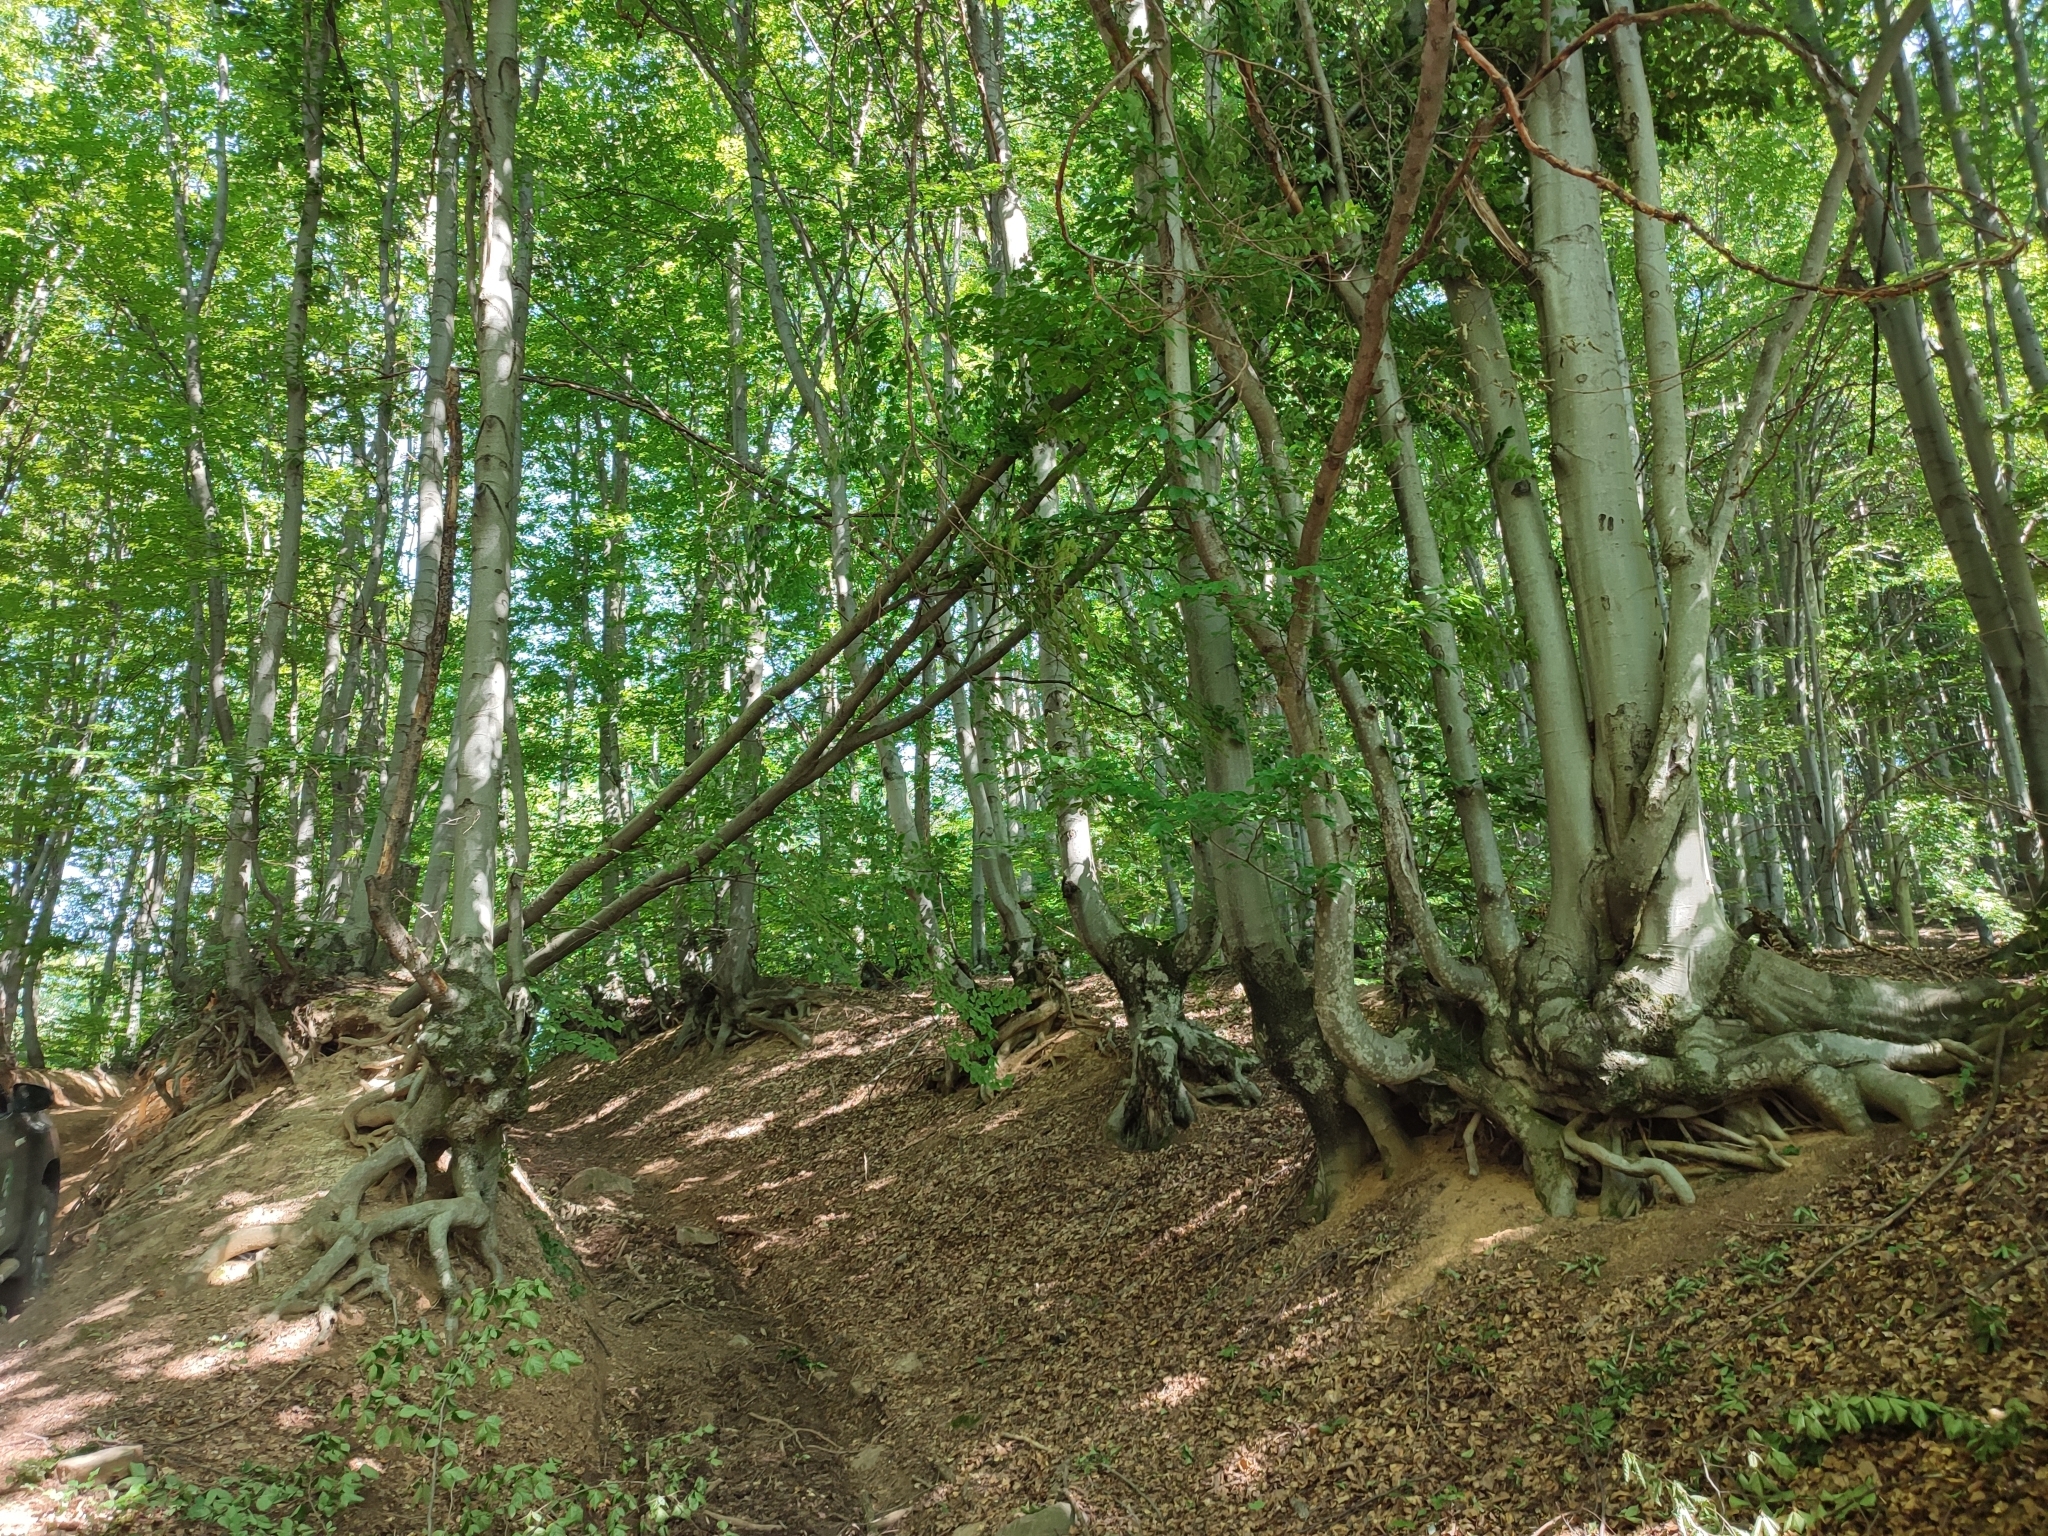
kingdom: Plantae
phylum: Tracheophyta
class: Magnoliopsida
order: Fagales
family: Fagaceae
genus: Fagus
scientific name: Fagus sylvatica
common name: Beech
